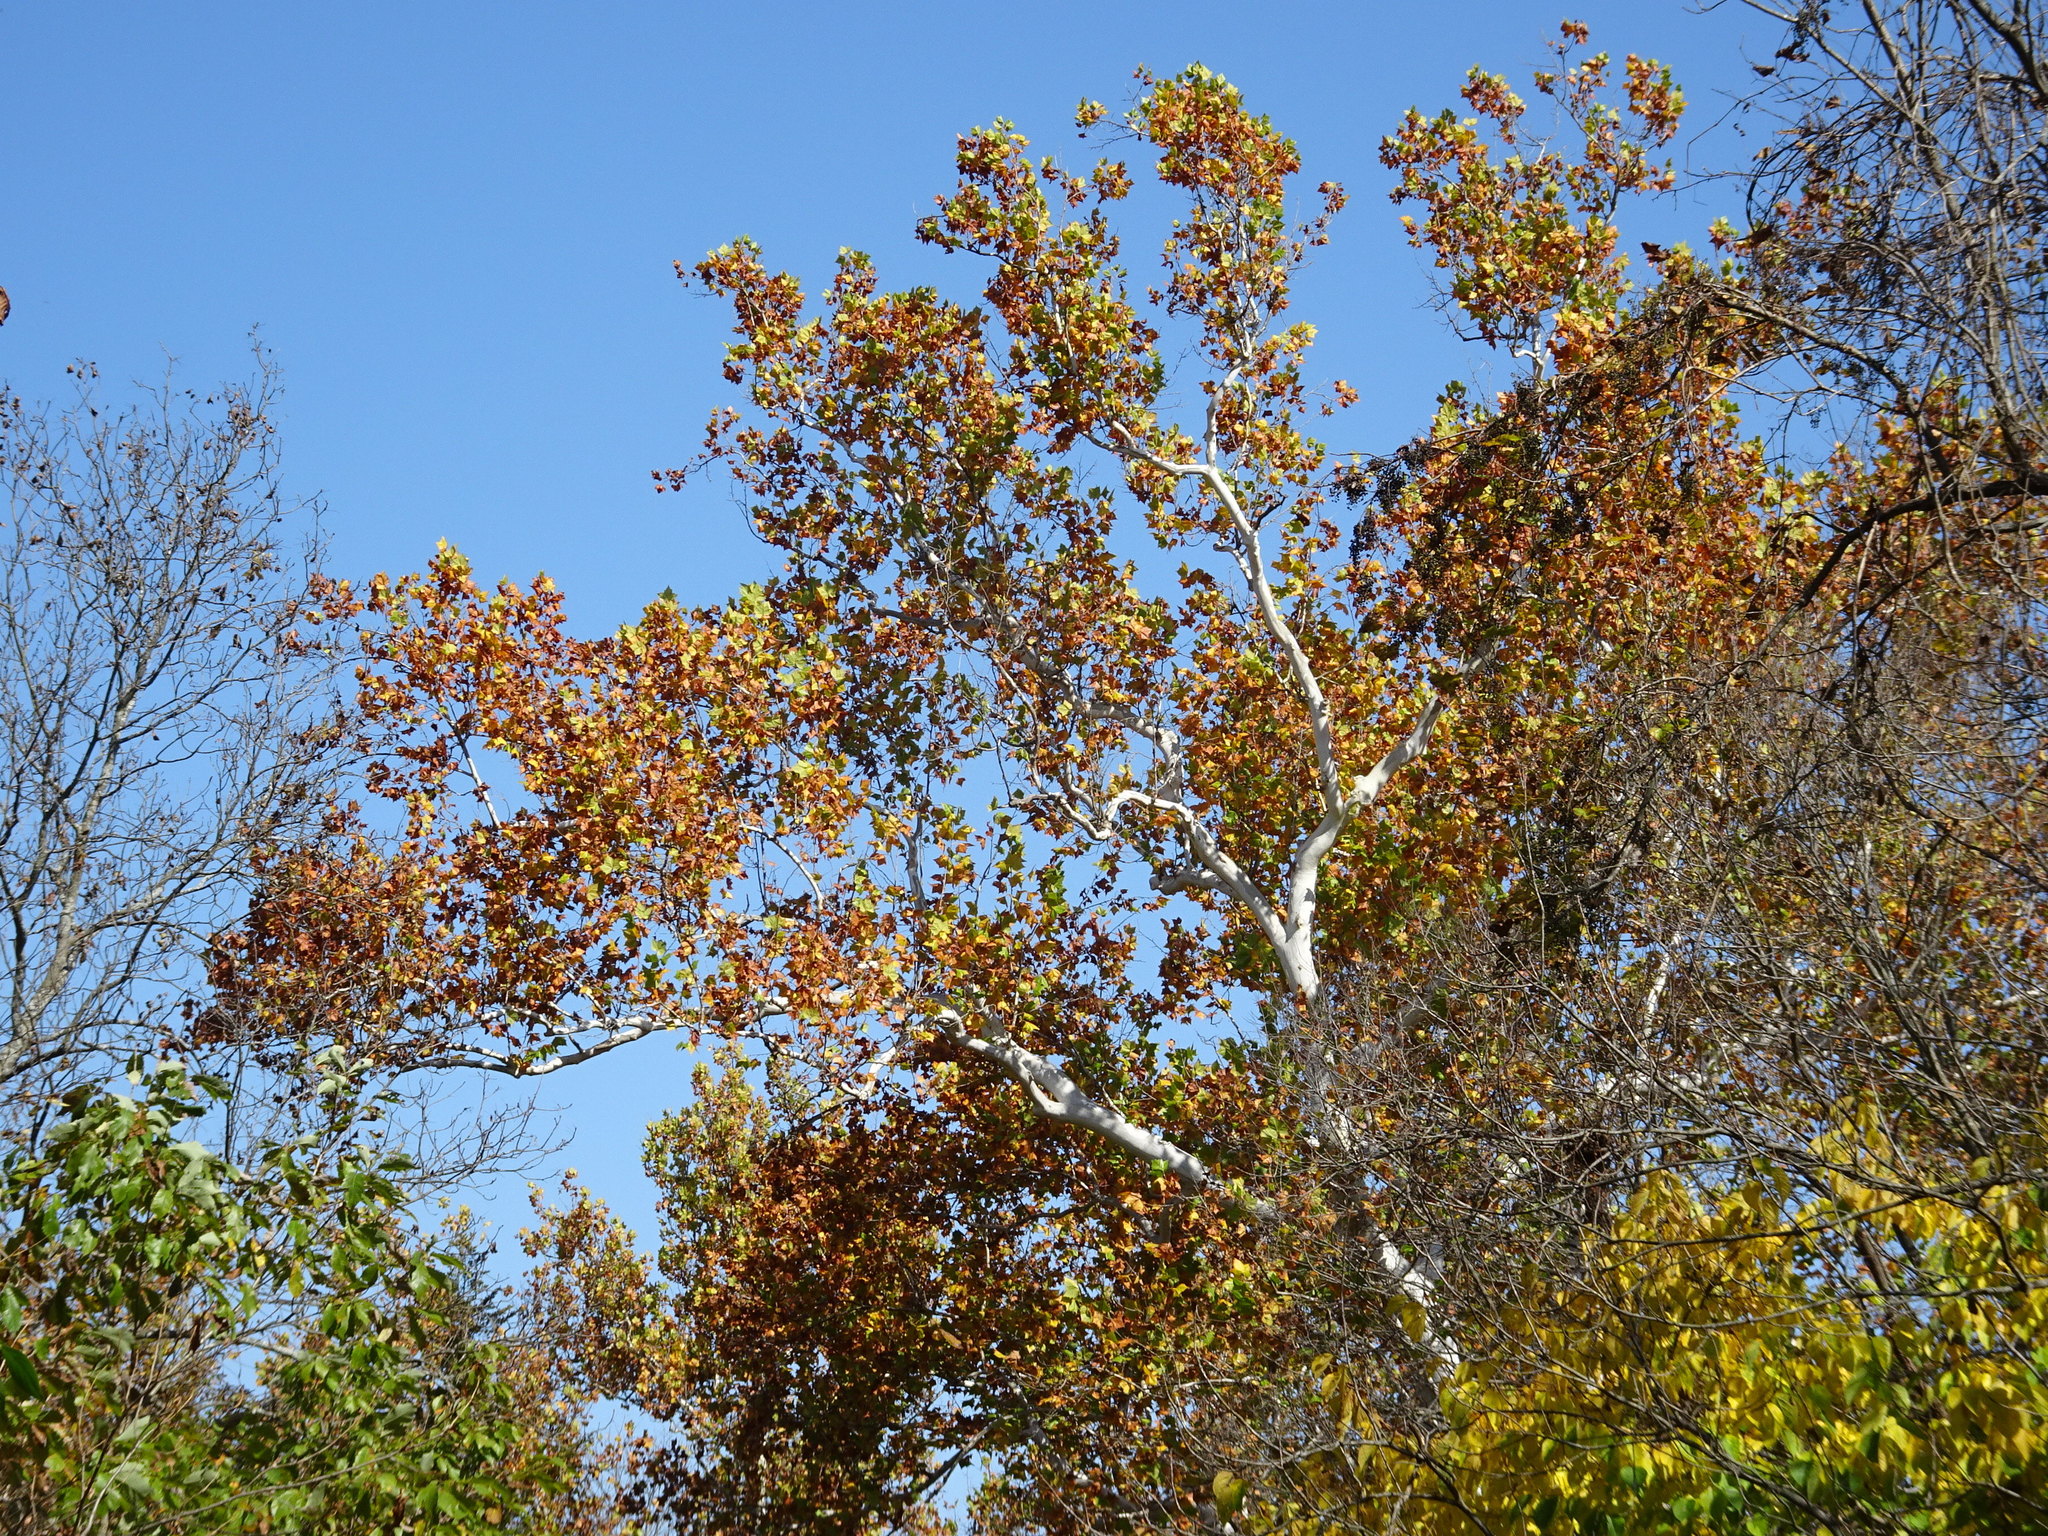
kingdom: Plantae
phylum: Tracheophyta
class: Magnoliopsida
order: Proteales
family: Platanaceae
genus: Platanus
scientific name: Platanus occidentalis
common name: American sycamore
